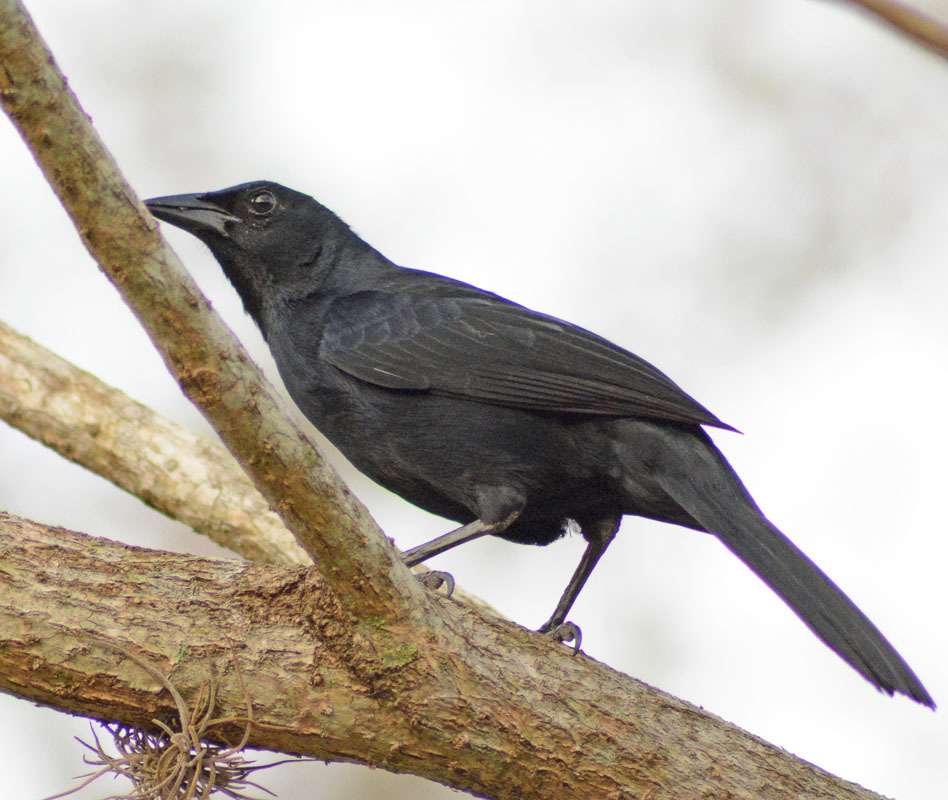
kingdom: Animalia
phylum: Chordata
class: Aves
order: Passeriformes
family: Icteridae
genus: Dives
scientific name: Dives dives
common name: Melodious blackbird
